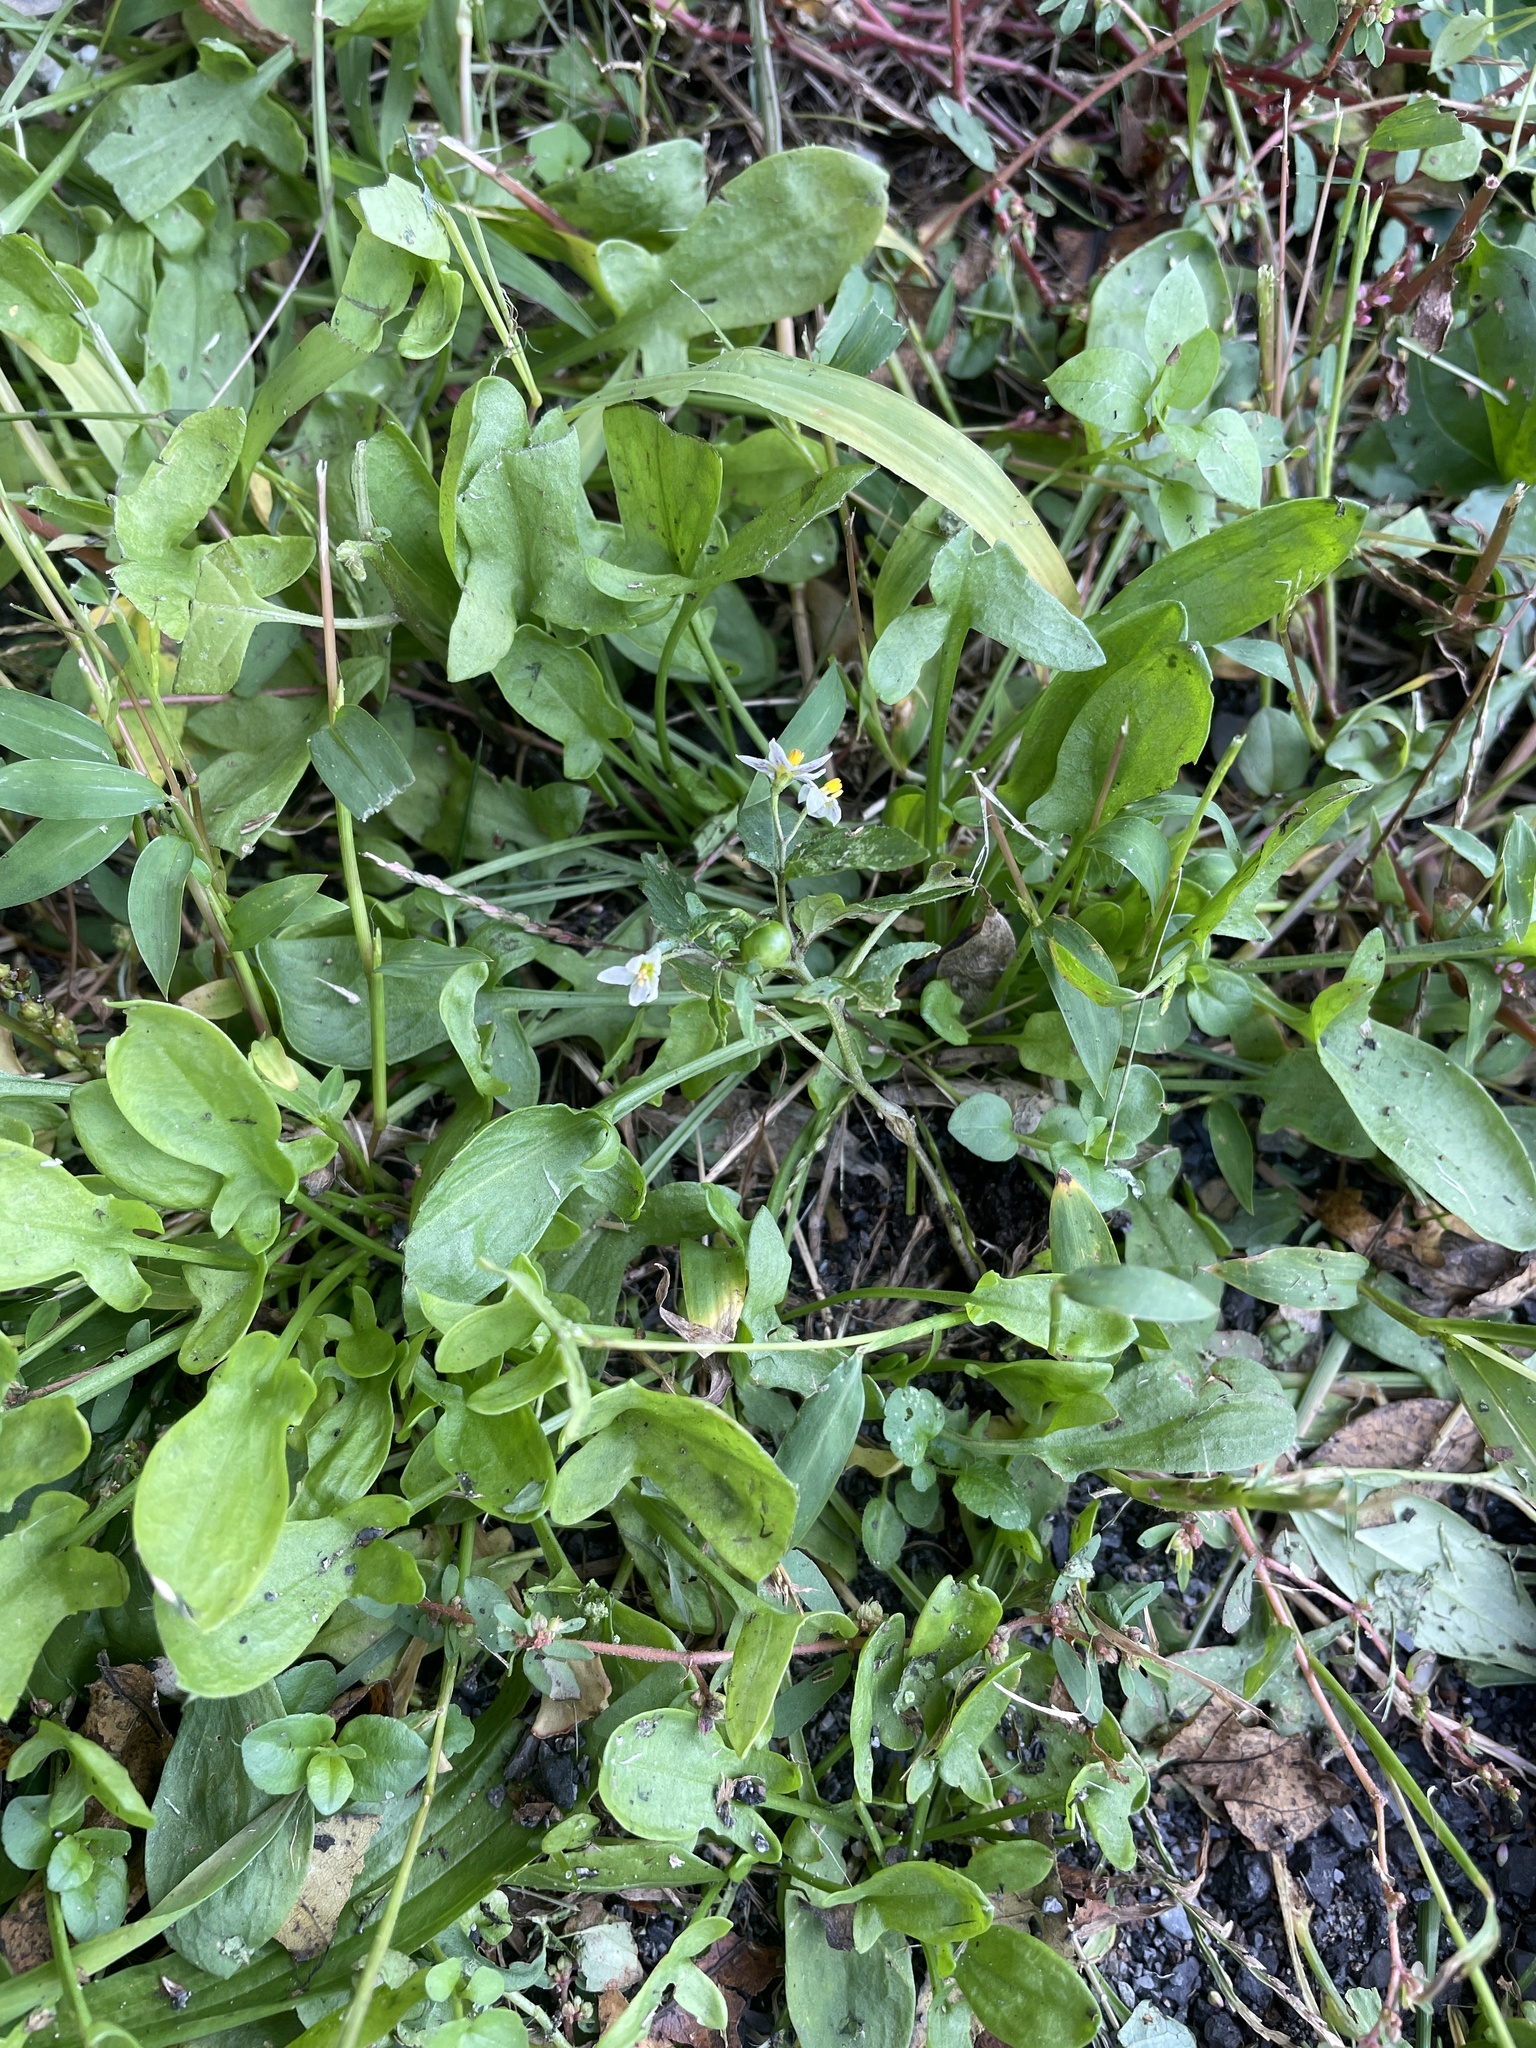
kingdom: Plantae
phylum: Tracheophyta
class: Magnoliopsida
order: Solanales
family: Solanaceae
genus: Solanum
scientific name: Solanum emulans
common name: Eastern black nightshade
